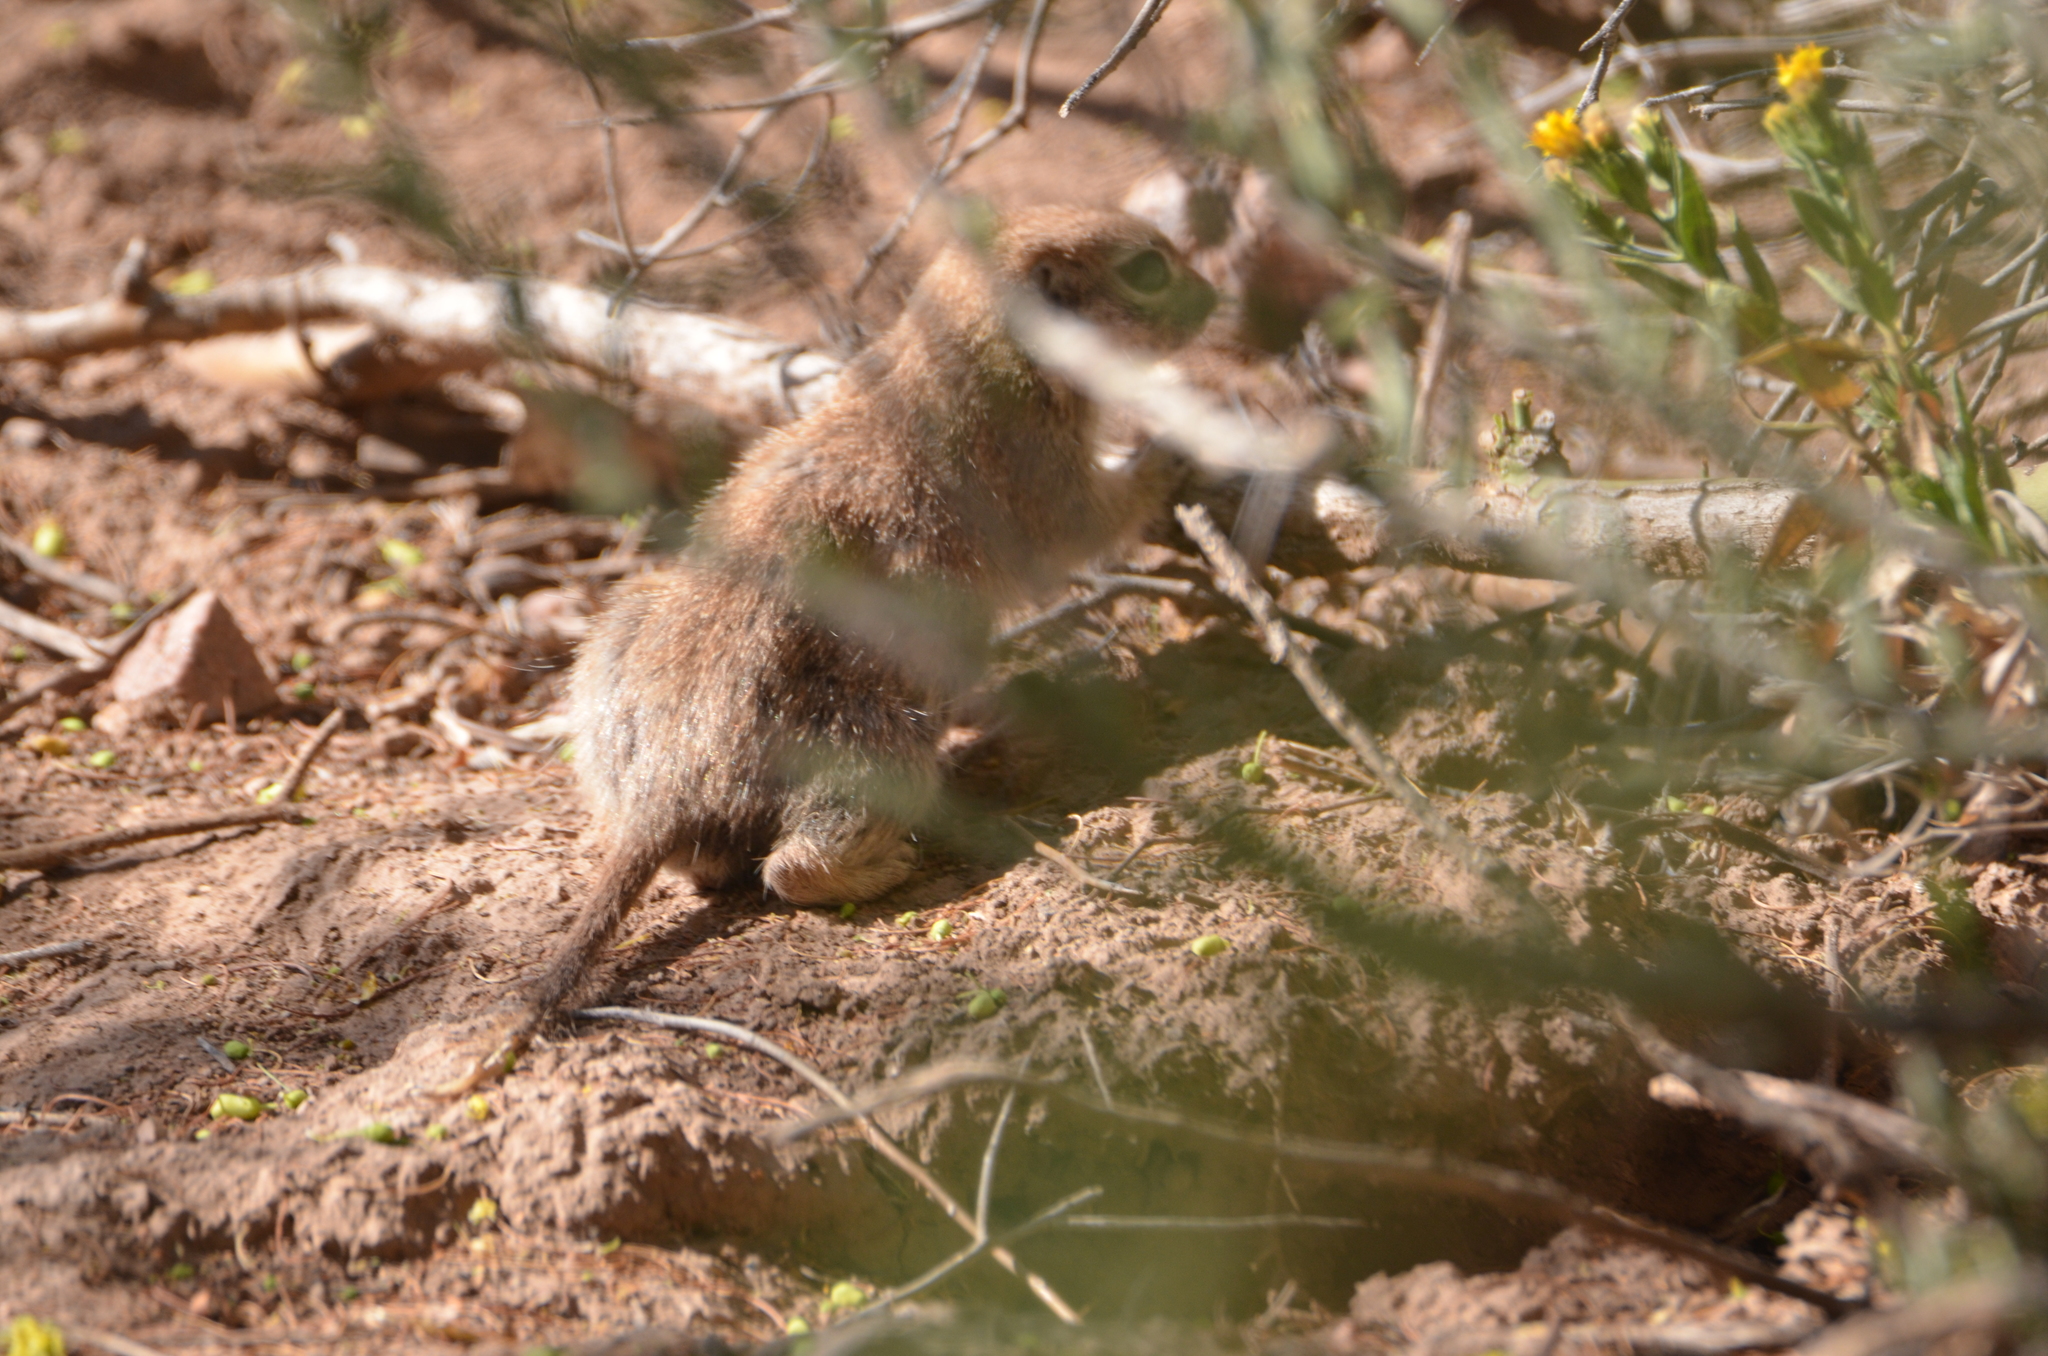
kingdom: Animalia
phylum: Chordata
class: Mammalia
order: Rodentia
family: Sciuridae
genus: Xerospermophilus
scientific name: Xerospermophilus tereticaudus
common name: Round-tailed ground squirrel
